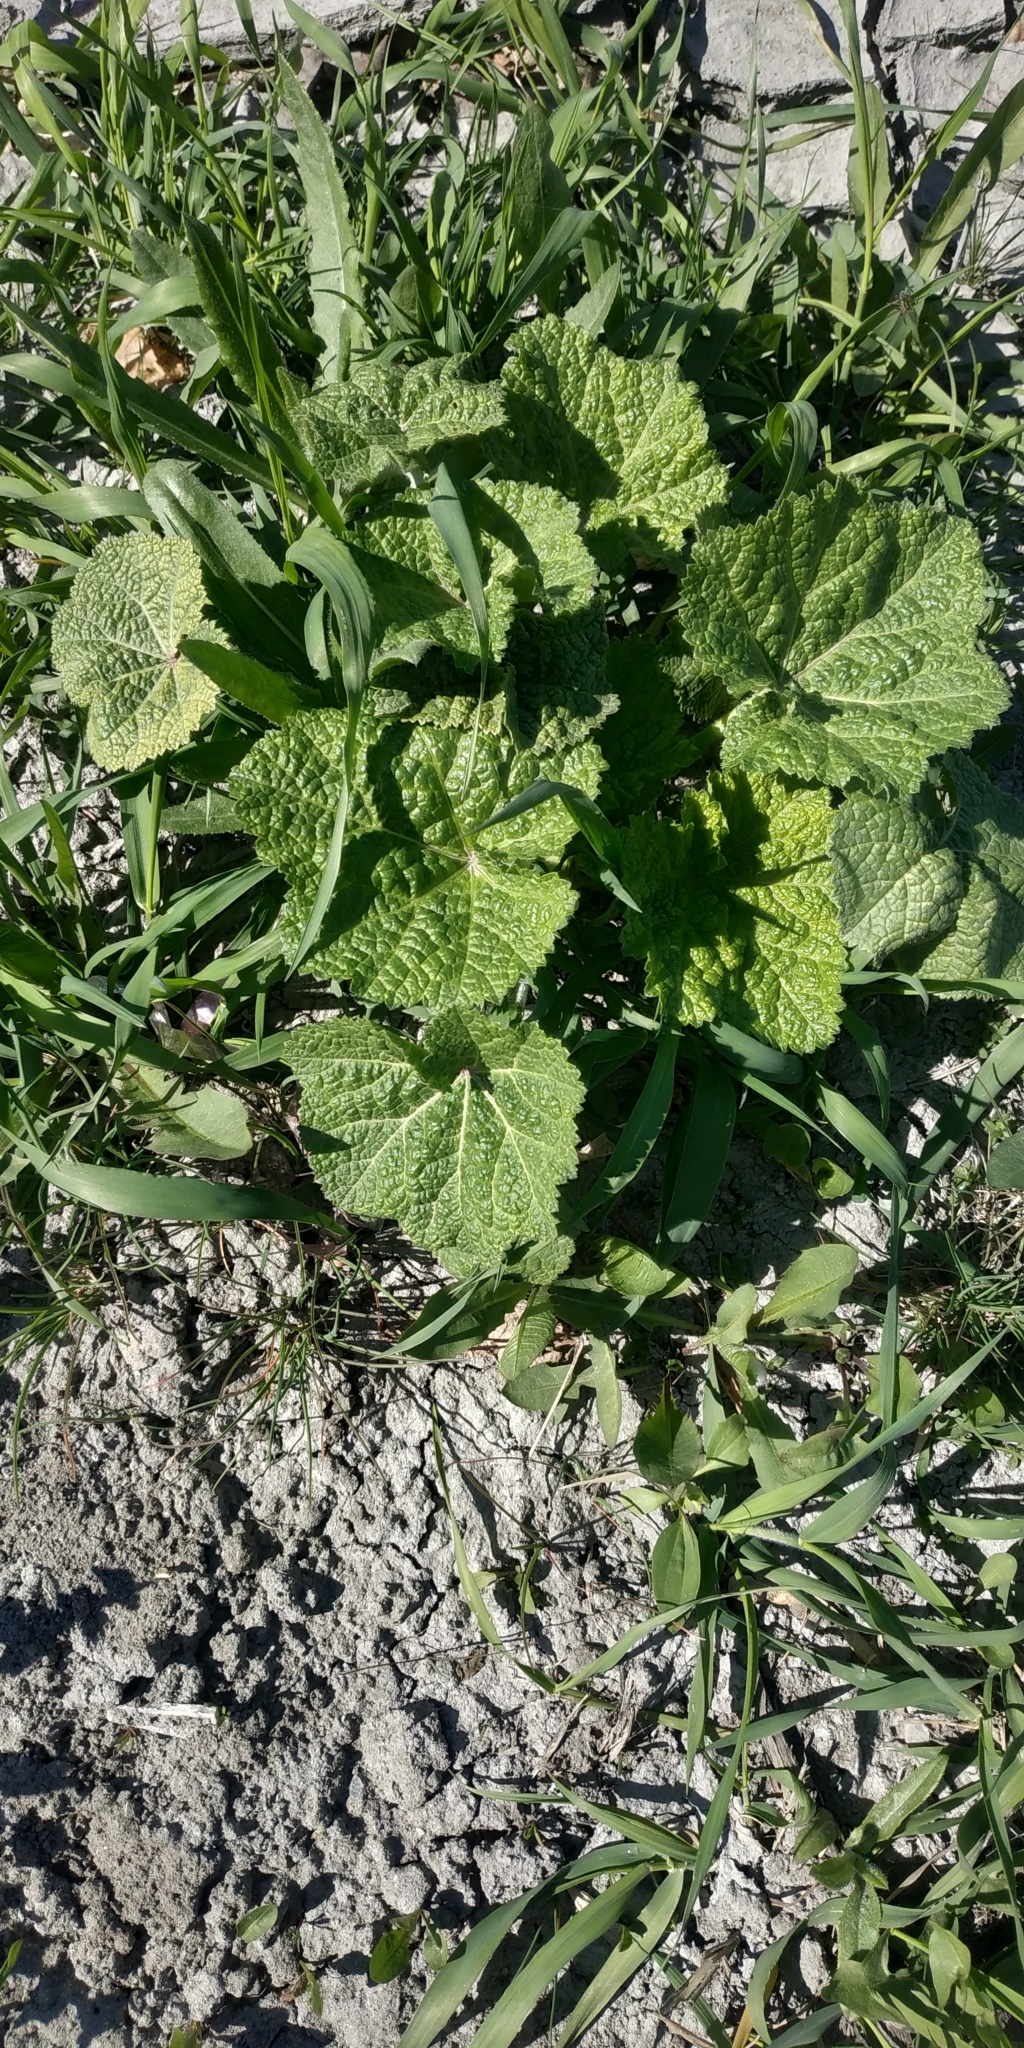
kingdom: Plantae
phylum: Tracheophyta
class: Magnoliopsida
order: Malvales
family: Malvaceae
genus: Alcea
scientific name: Alcea rosea
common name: Hollyhock
